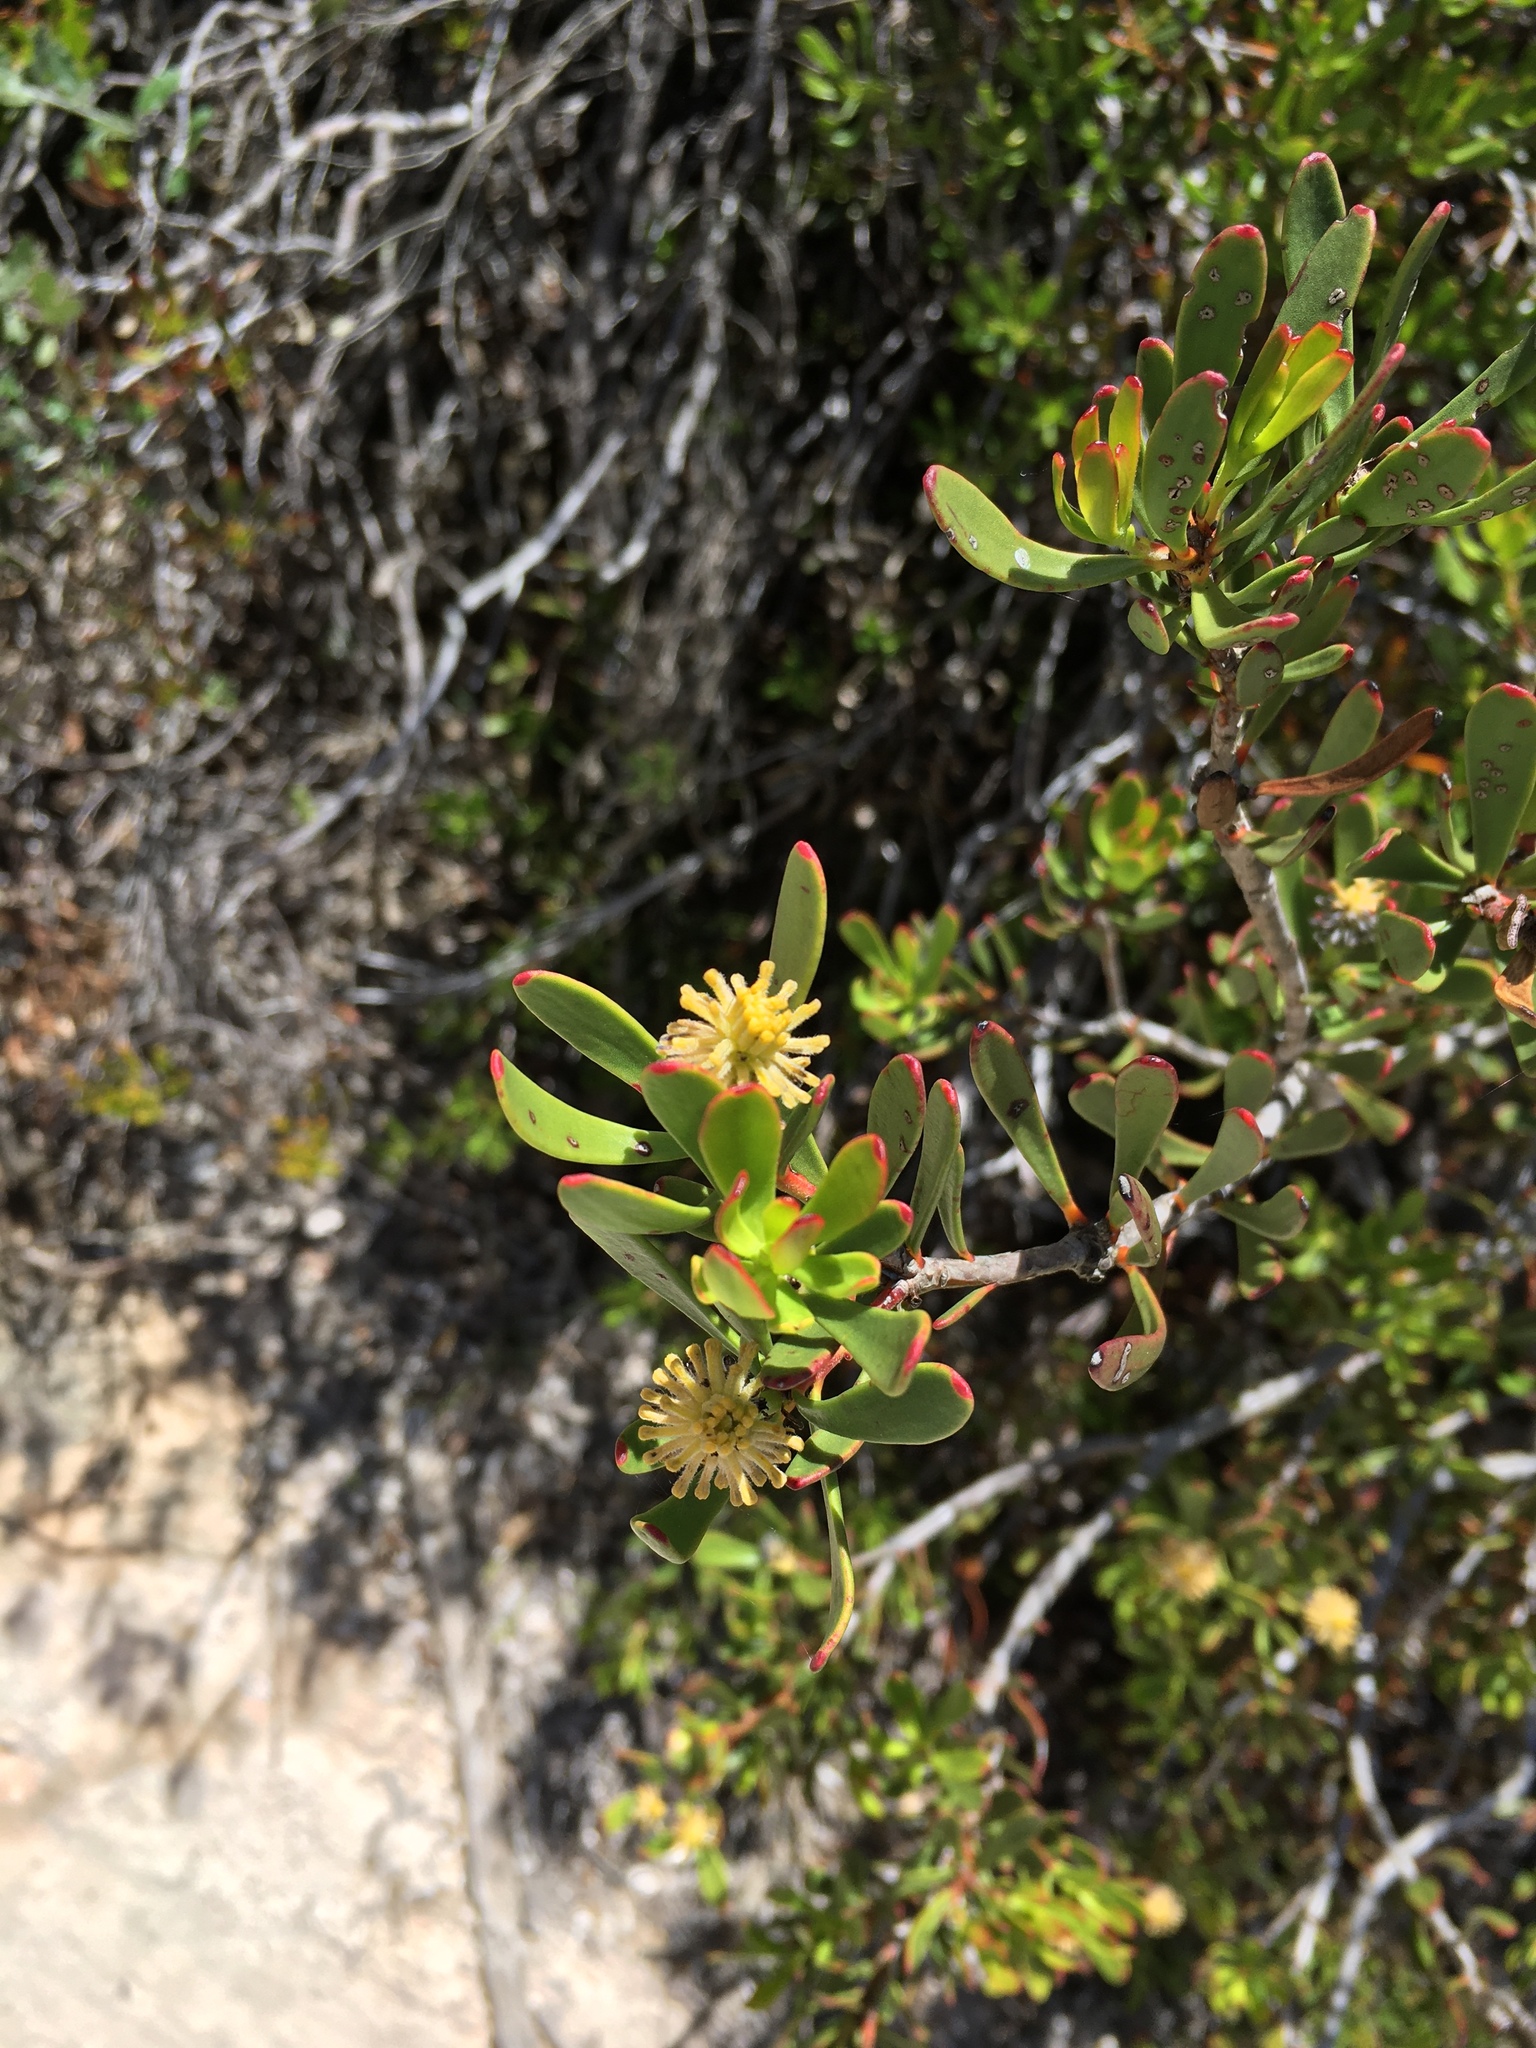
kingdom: Plantae
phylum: Tracheophyta
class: Magnoliopsida
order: Proteales
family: Proteaceae
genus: Leucadendron
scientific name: Leucadendron muirii
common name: Silver-ball conebush
